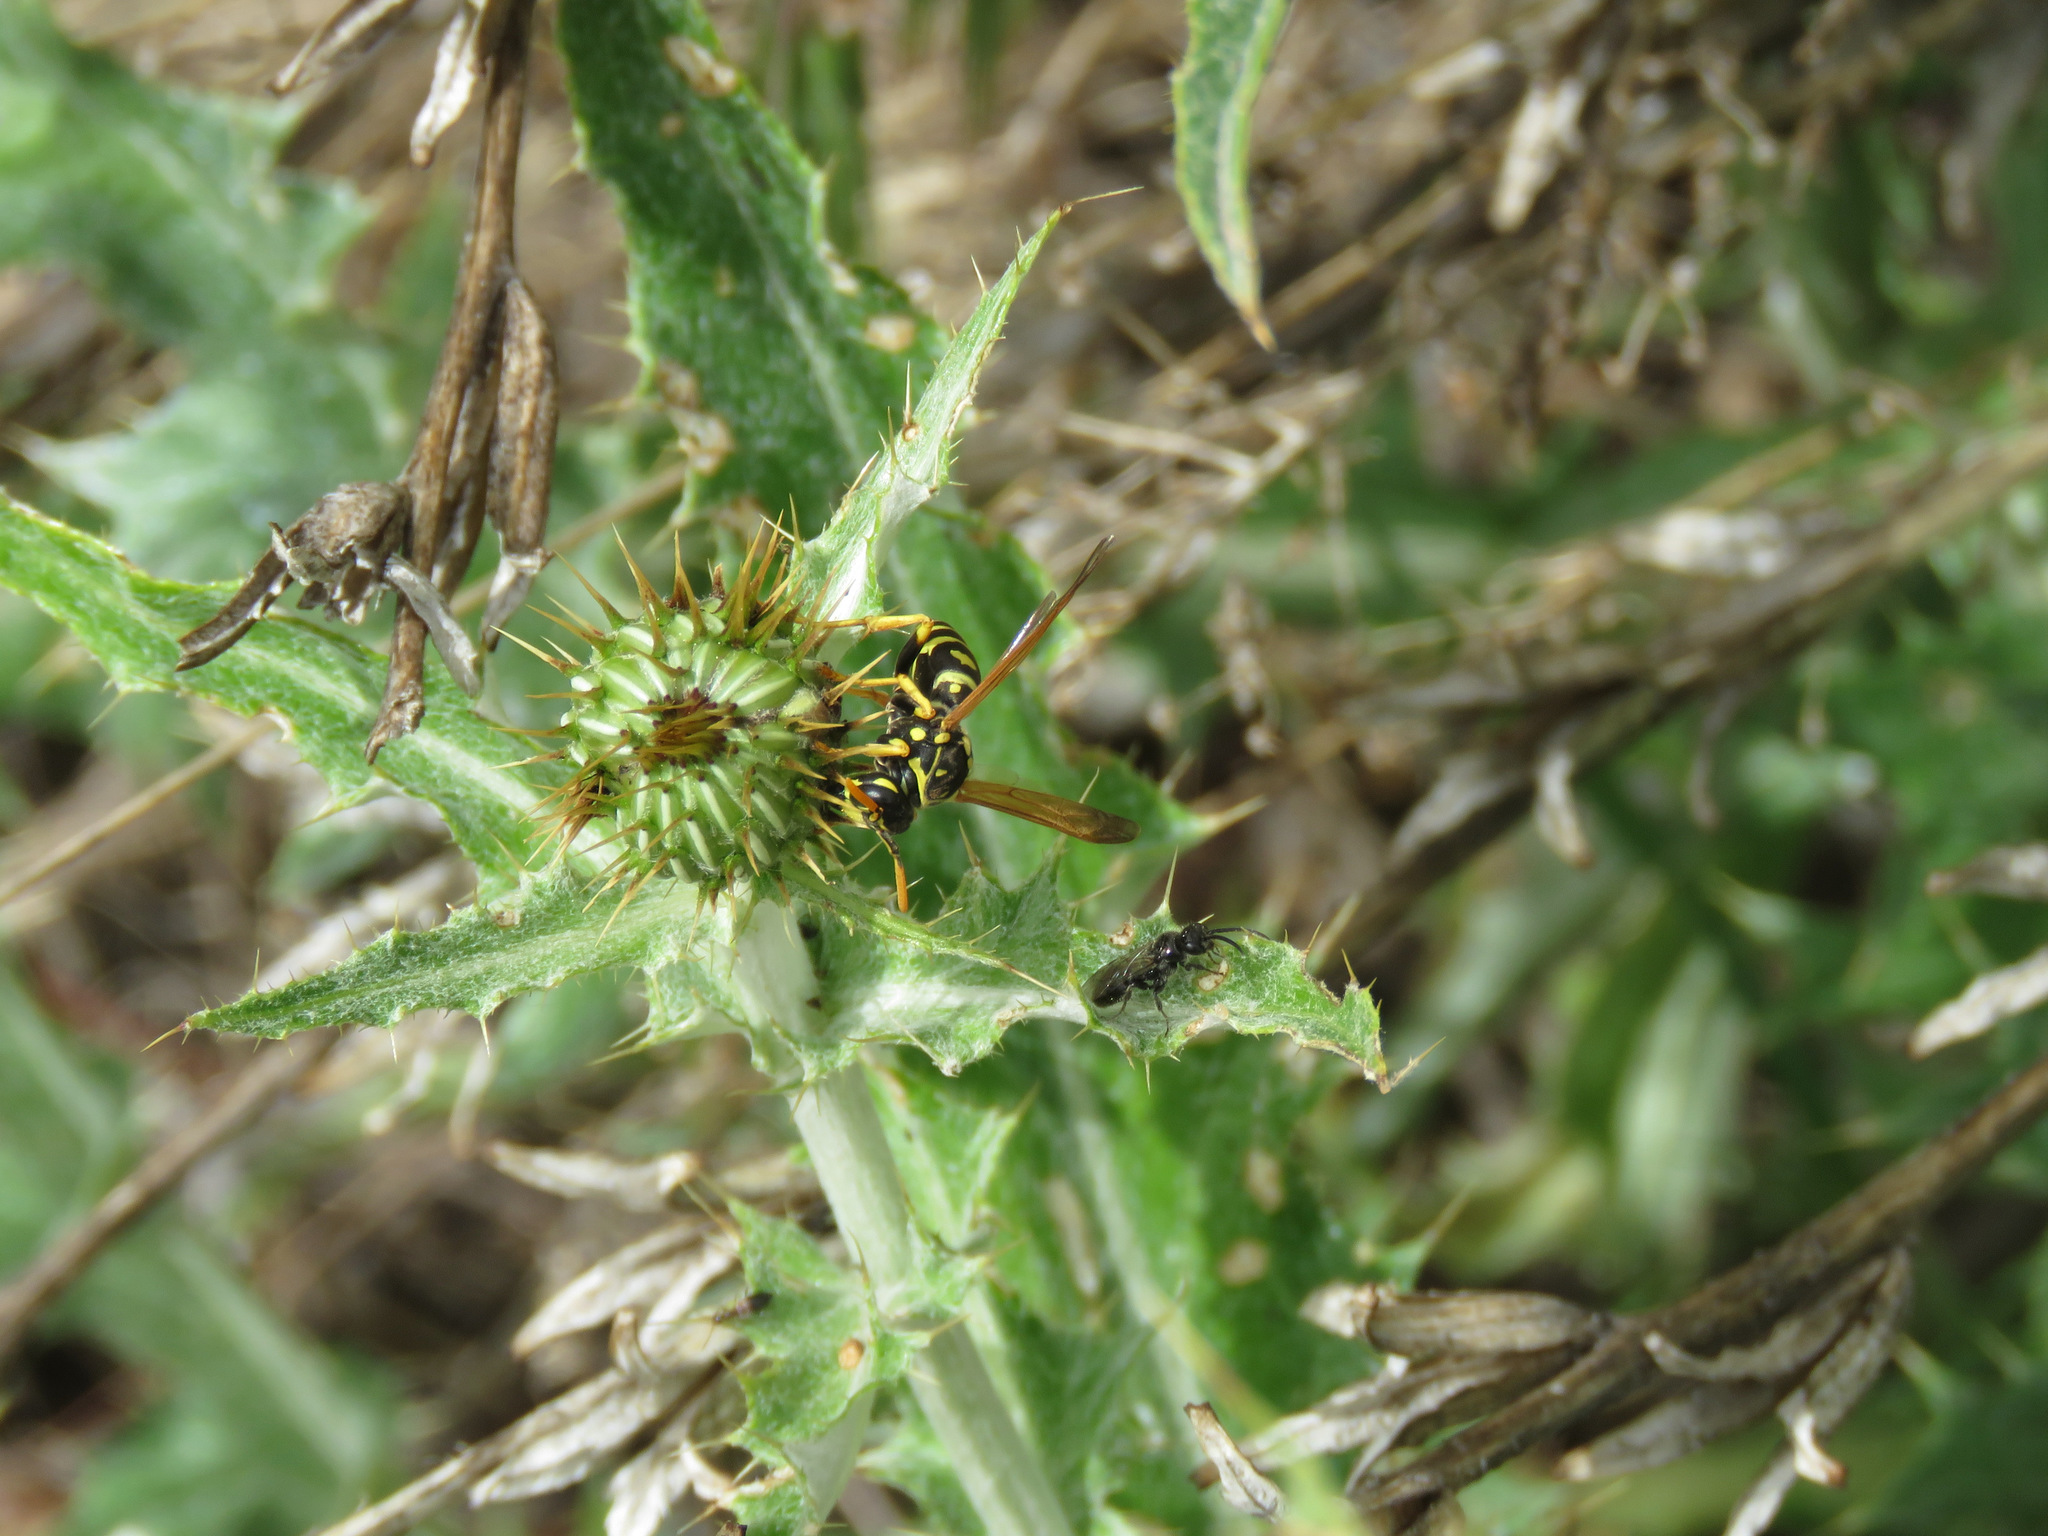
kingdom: Animalia
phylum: Arthropoda
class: Insecta
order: Hymenoptera
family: Eumenidae
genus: Polistes
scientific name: Polistes dominula
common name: Paper wasp
